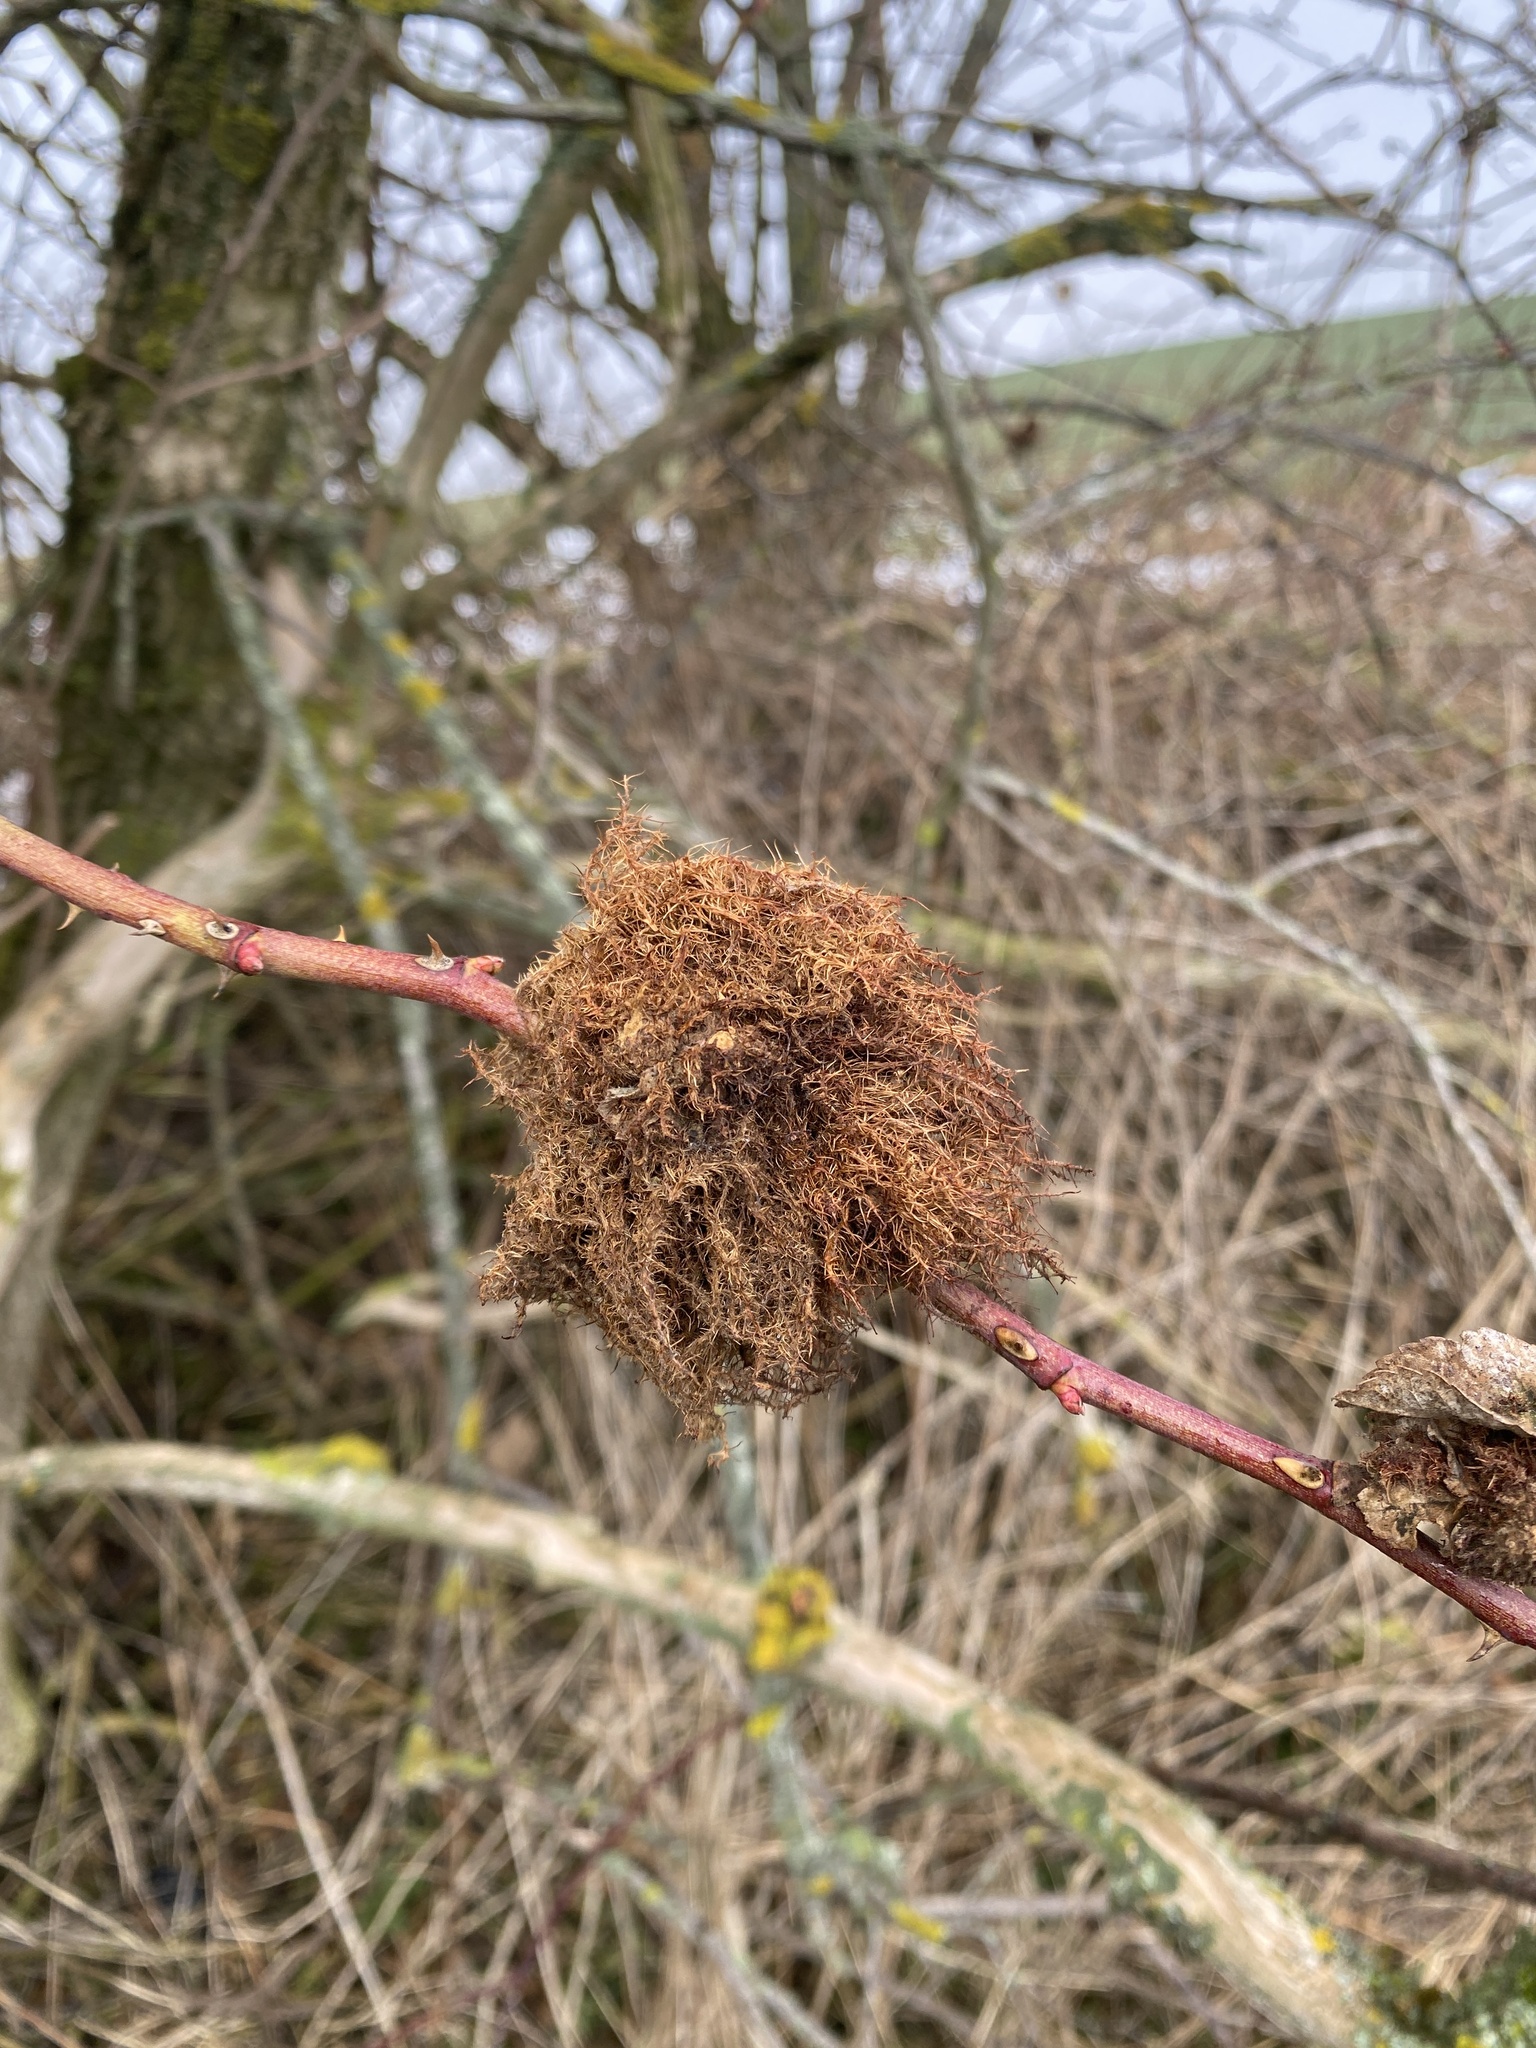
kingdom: Animalia
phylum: Arthropoda
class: Insecta
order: Hymenoptera
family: Cynipidae
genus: Diplolepis
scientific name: Diplolepis rosae
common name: Bedeguar gall
